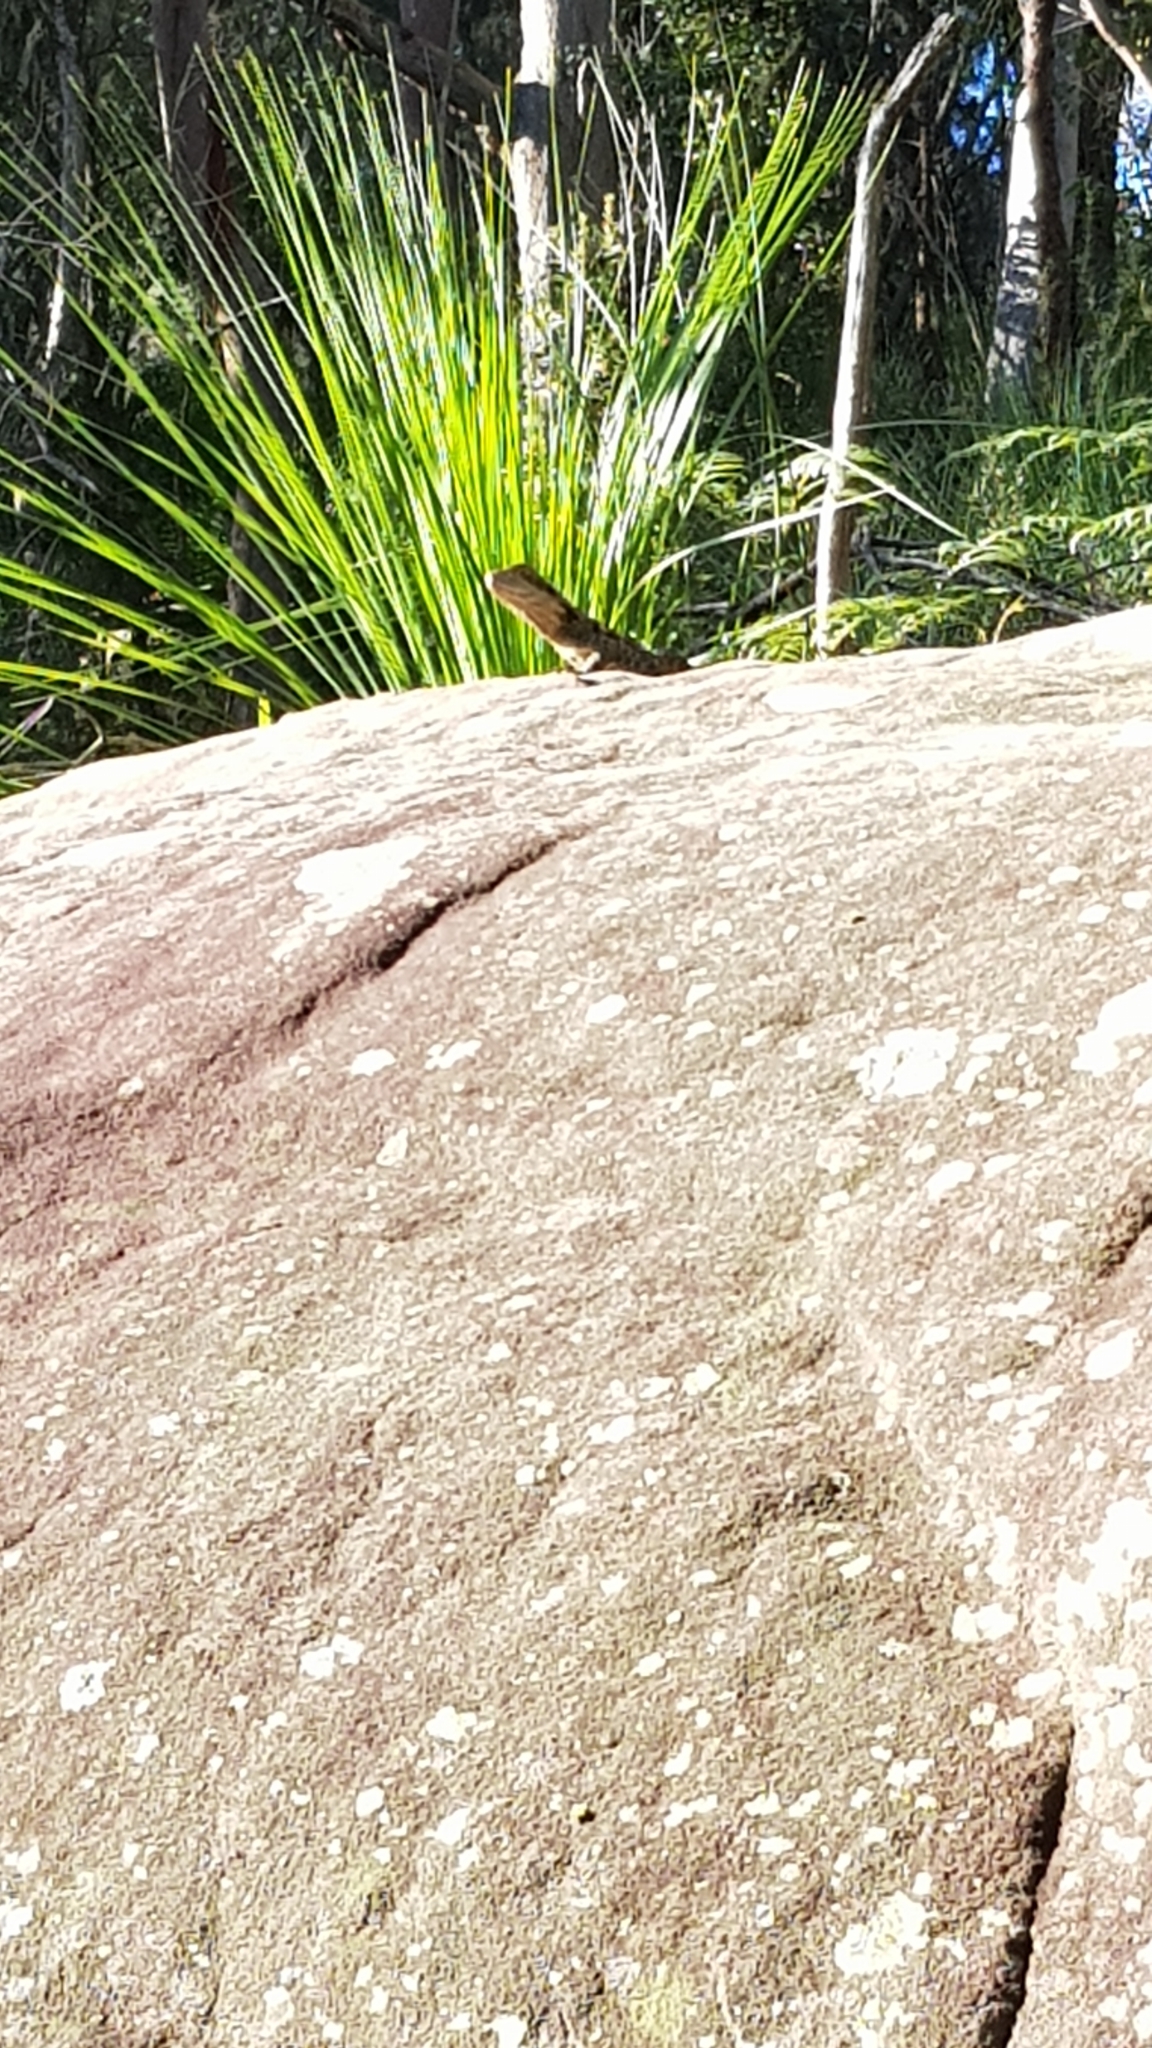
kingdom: Animalia
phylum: Chordata
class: Squamata
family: Agamidae
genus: Intellagama
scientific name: Intellagama lesueurii
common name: Eastern water dragon
